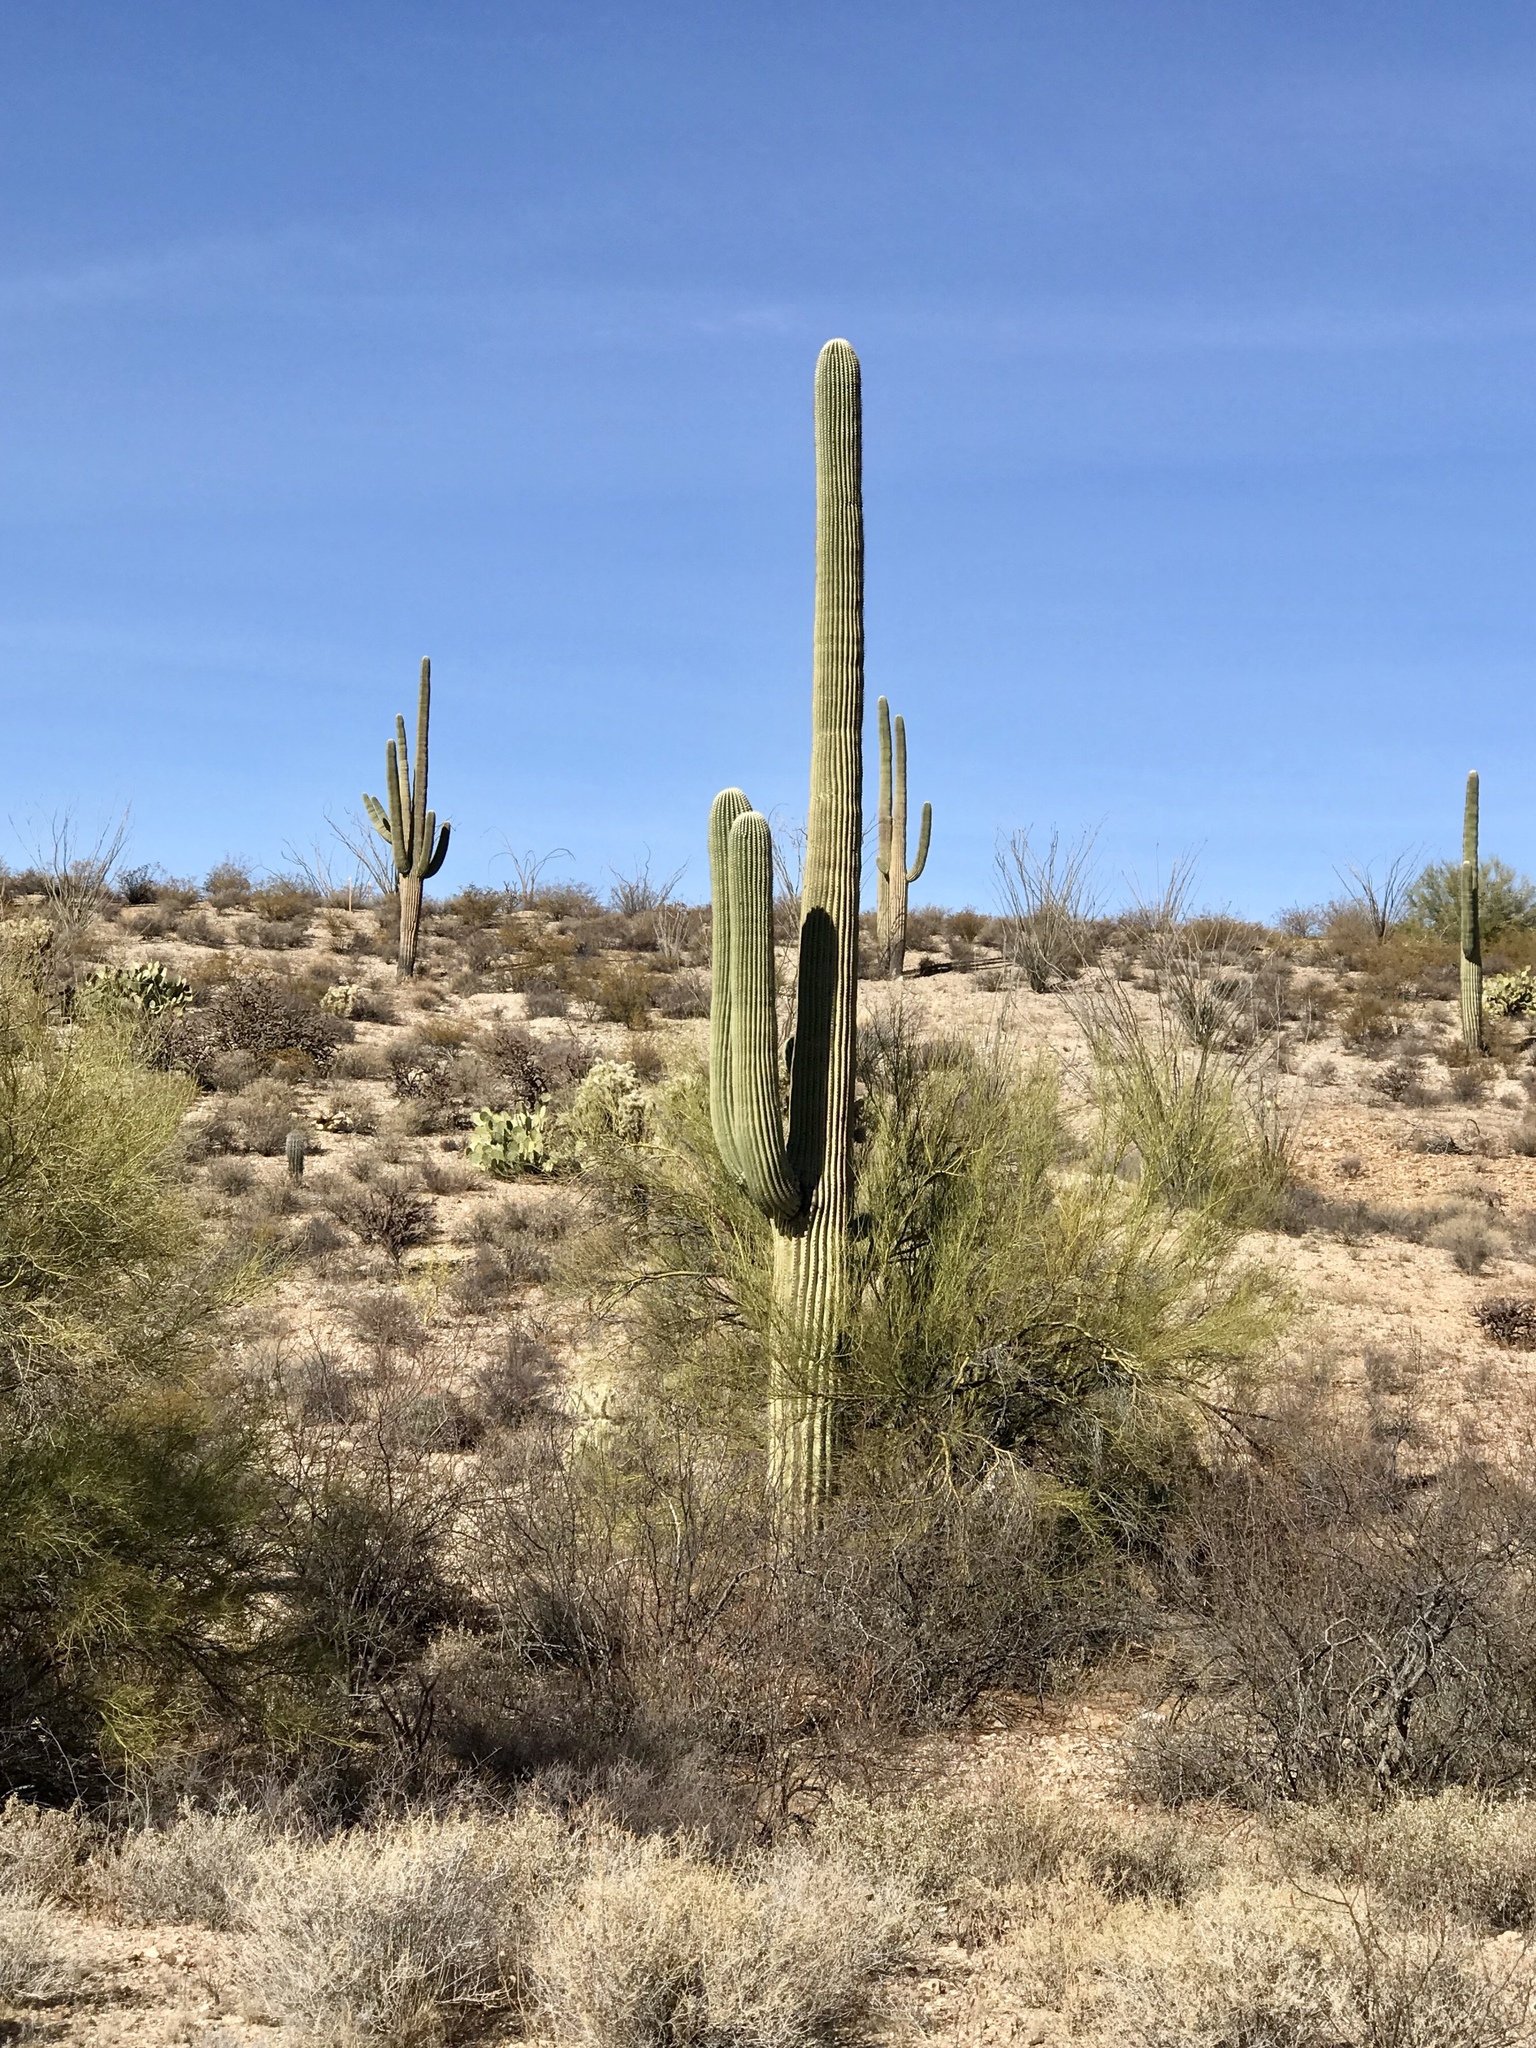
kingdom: Plantae
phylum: Tracheophyta
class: Magnoliopsida
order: Caryophyllales
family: Cactaceae
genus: Carnegiea
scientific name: Carnegiea gigantea
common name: Saguaro
